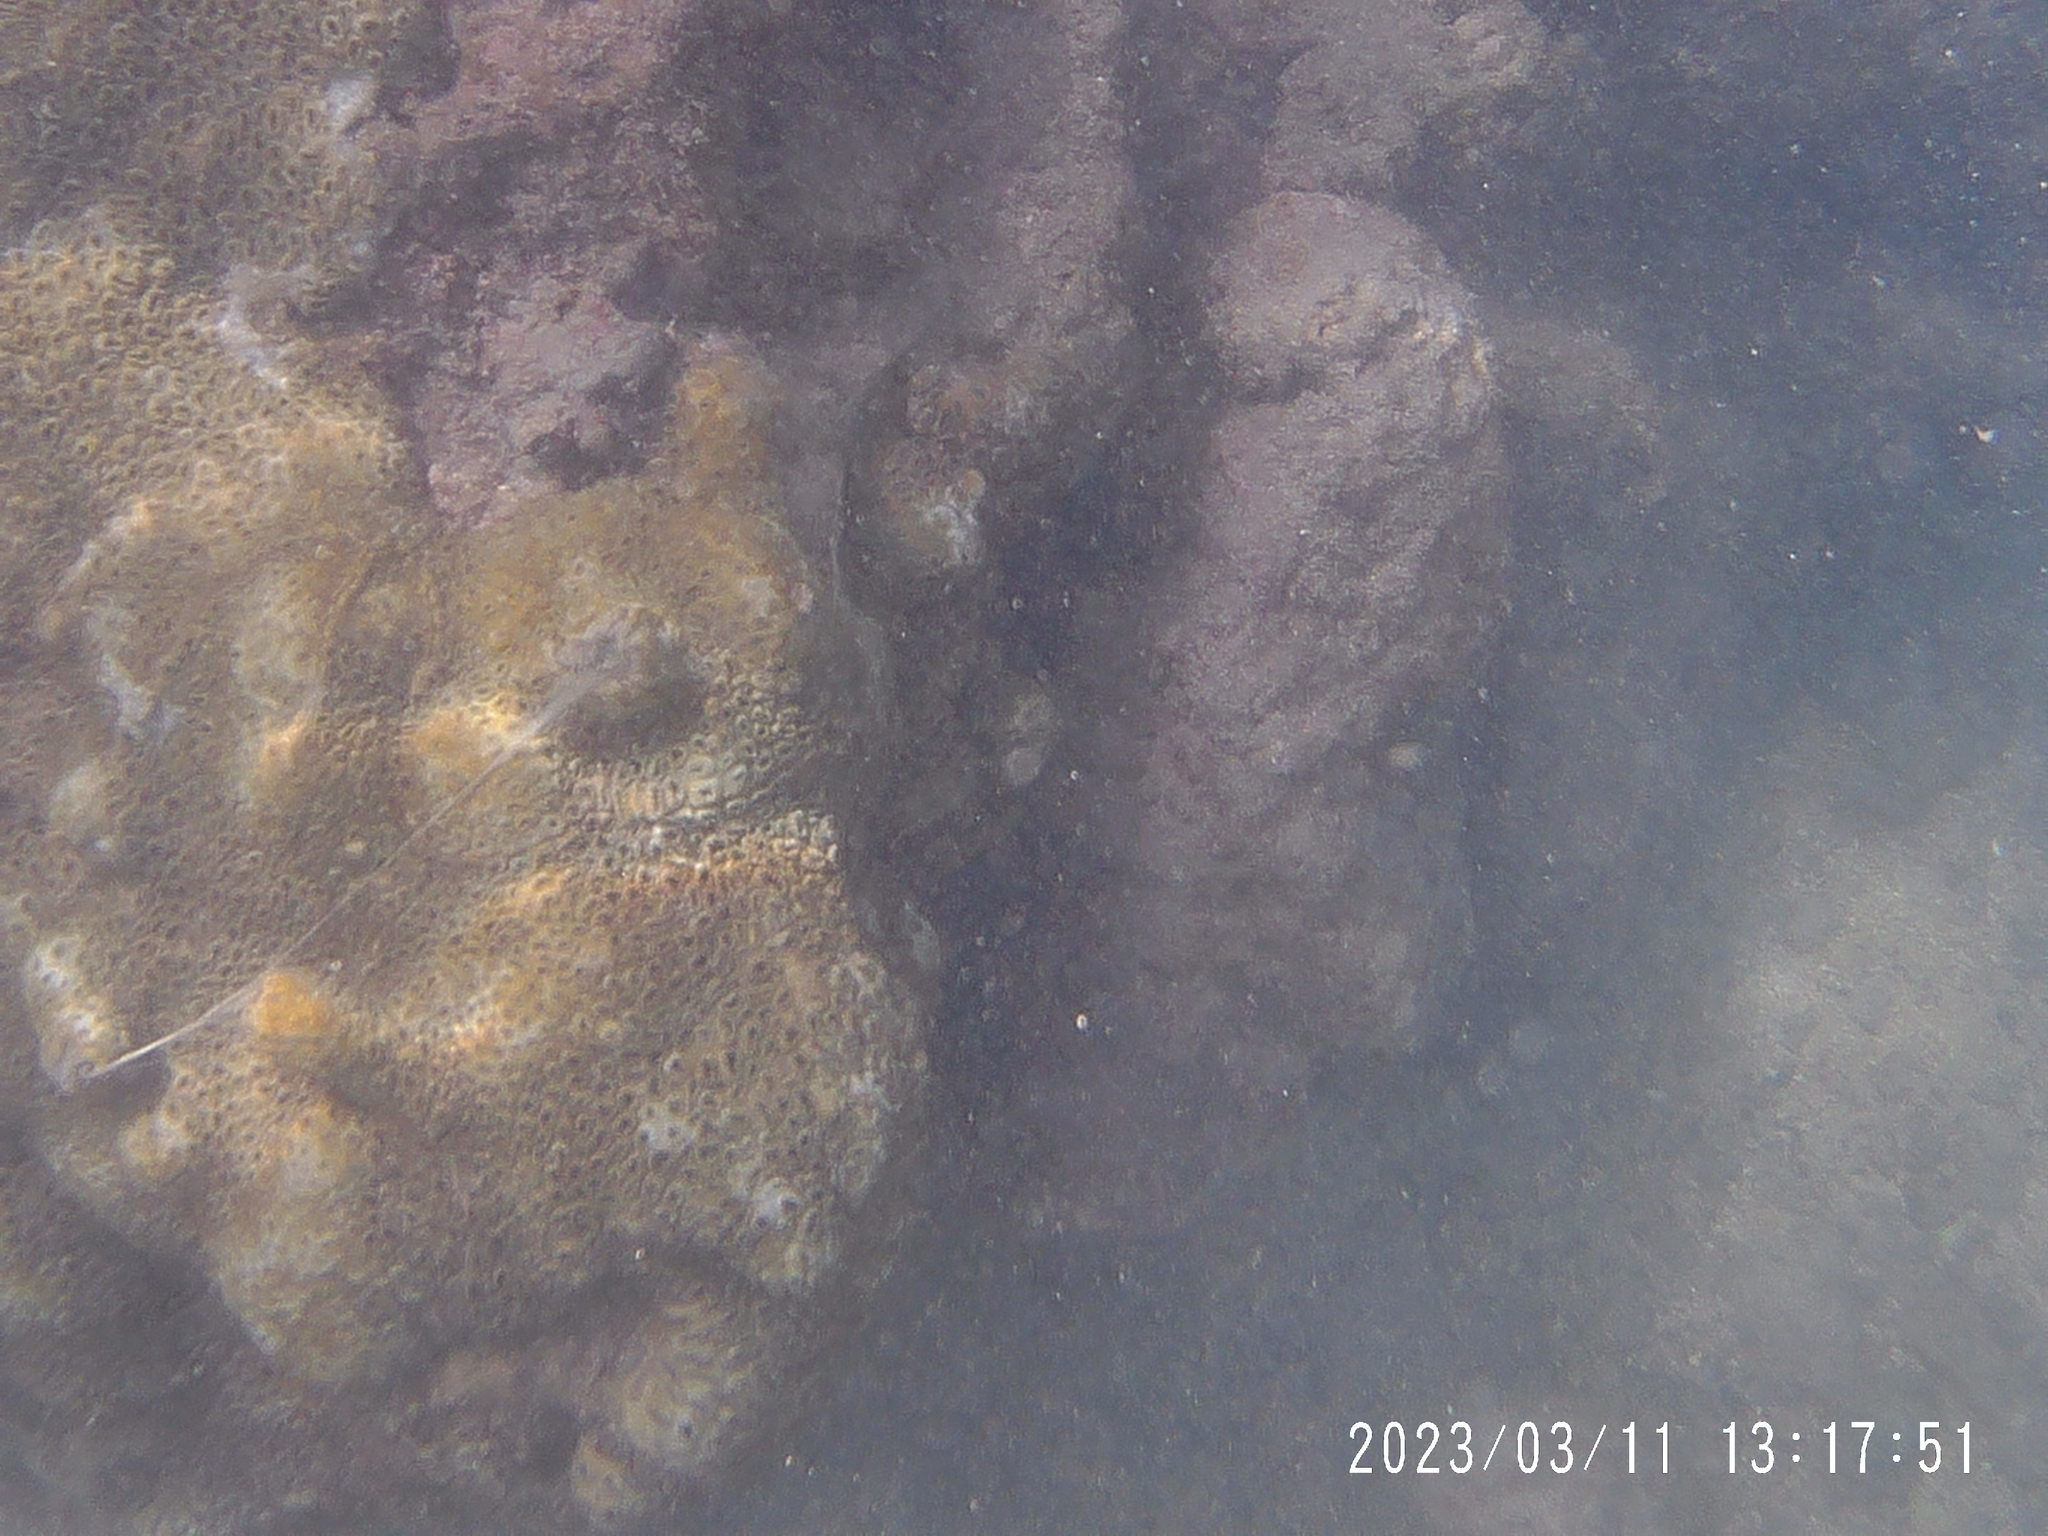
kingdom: Animalia
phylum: Cnidaria
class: Anthozoa
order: Zoantharia
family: Sphenopidae
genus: Palythoa
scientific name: Palythoa tuberculosa
